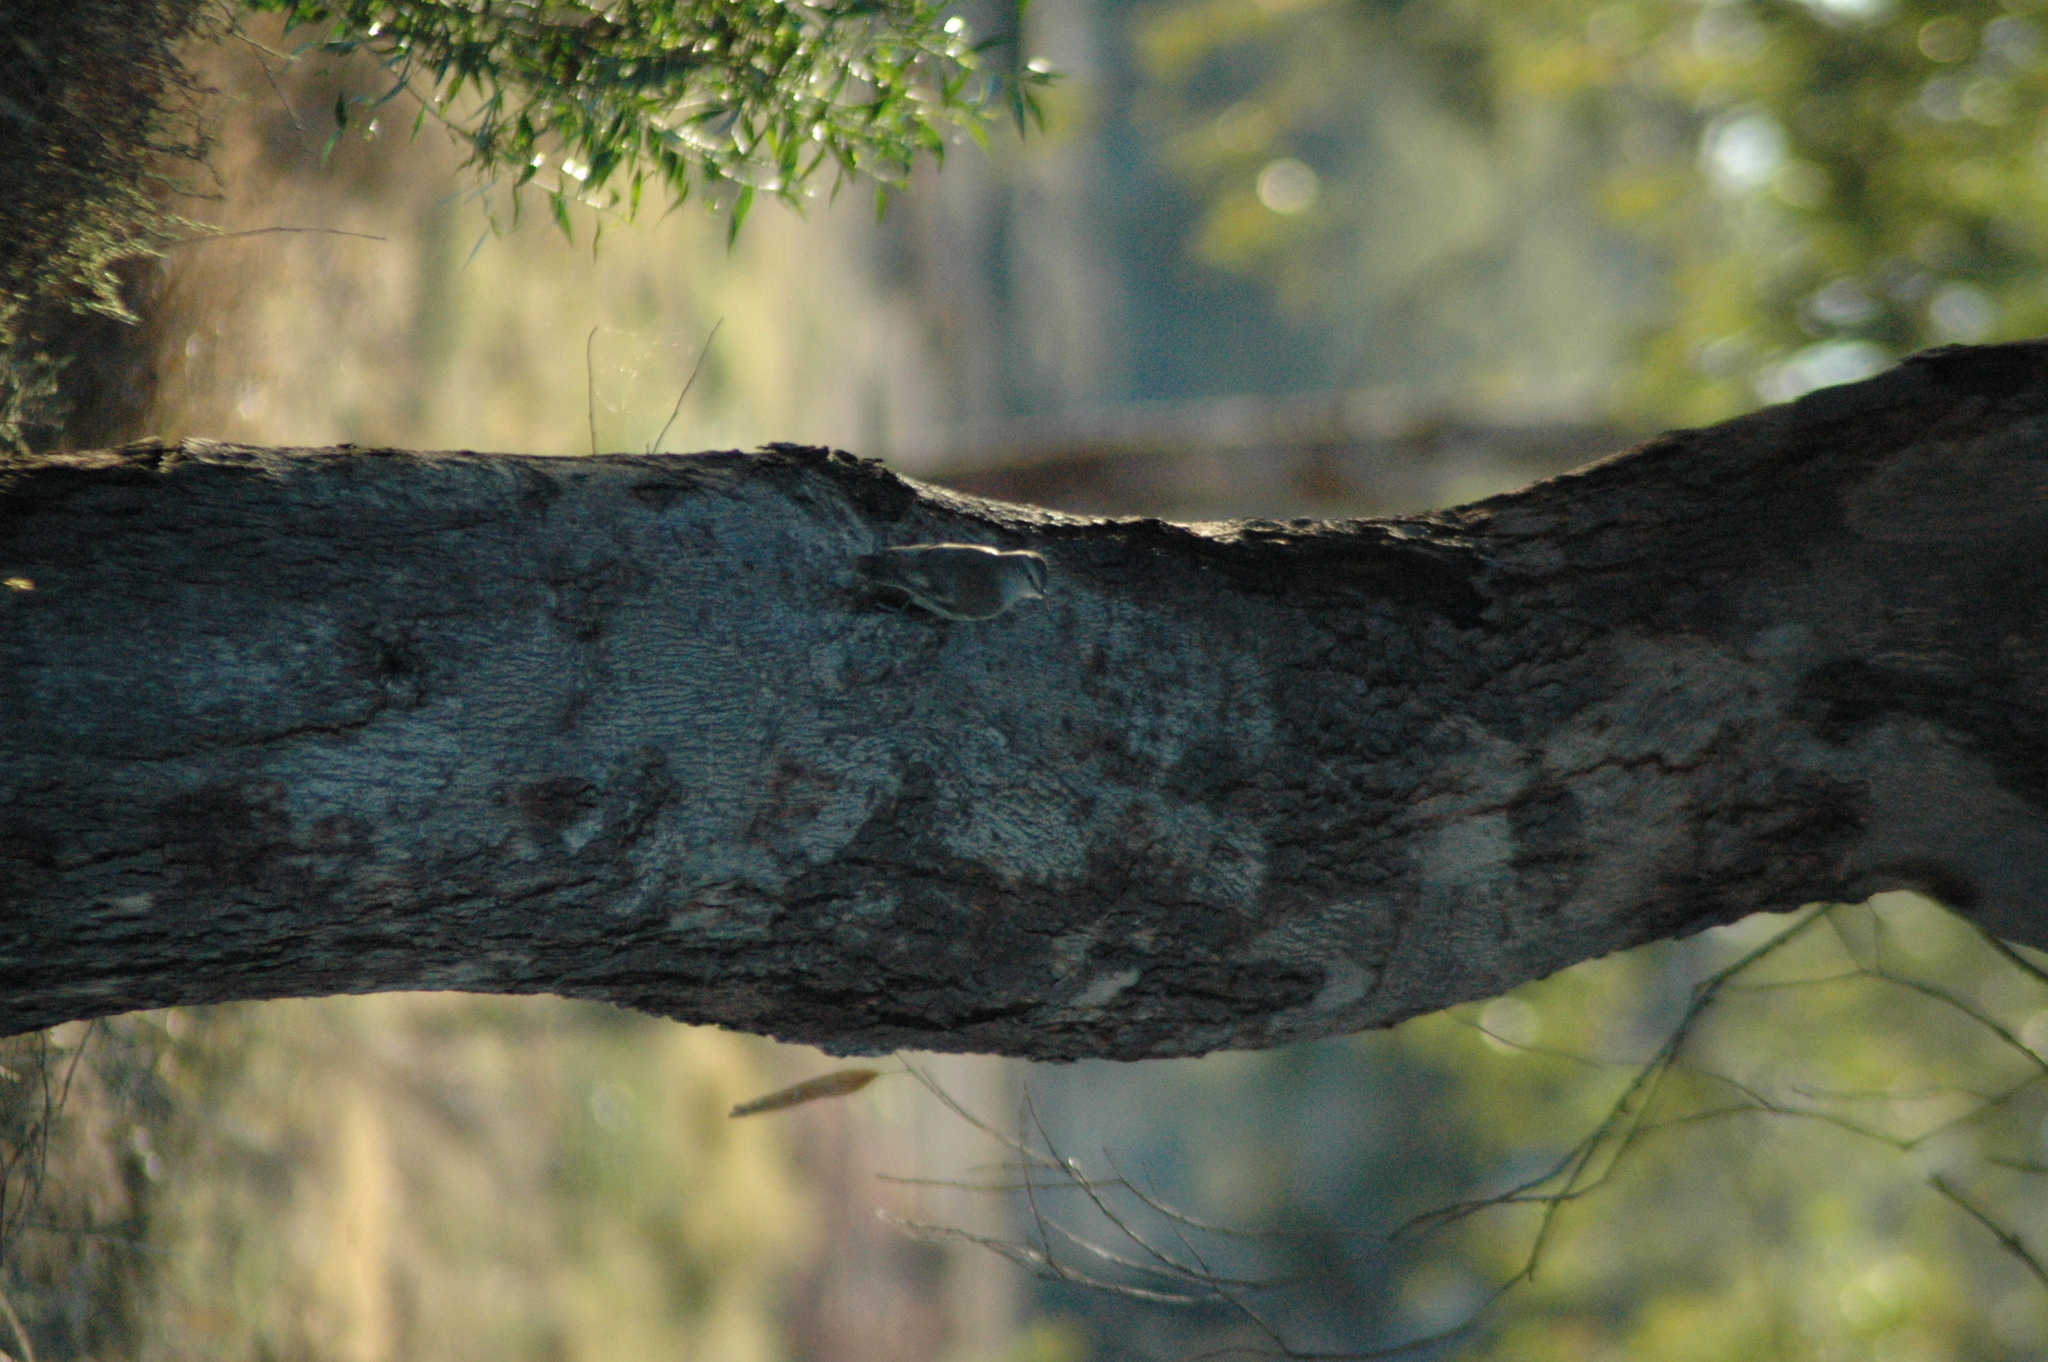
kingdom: Animalia
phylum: Chordata
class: Aves
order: Passeriformes
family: Climacteridae
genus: Climacteris
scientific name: Climacteris picumnus
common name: Brown treecreeper
